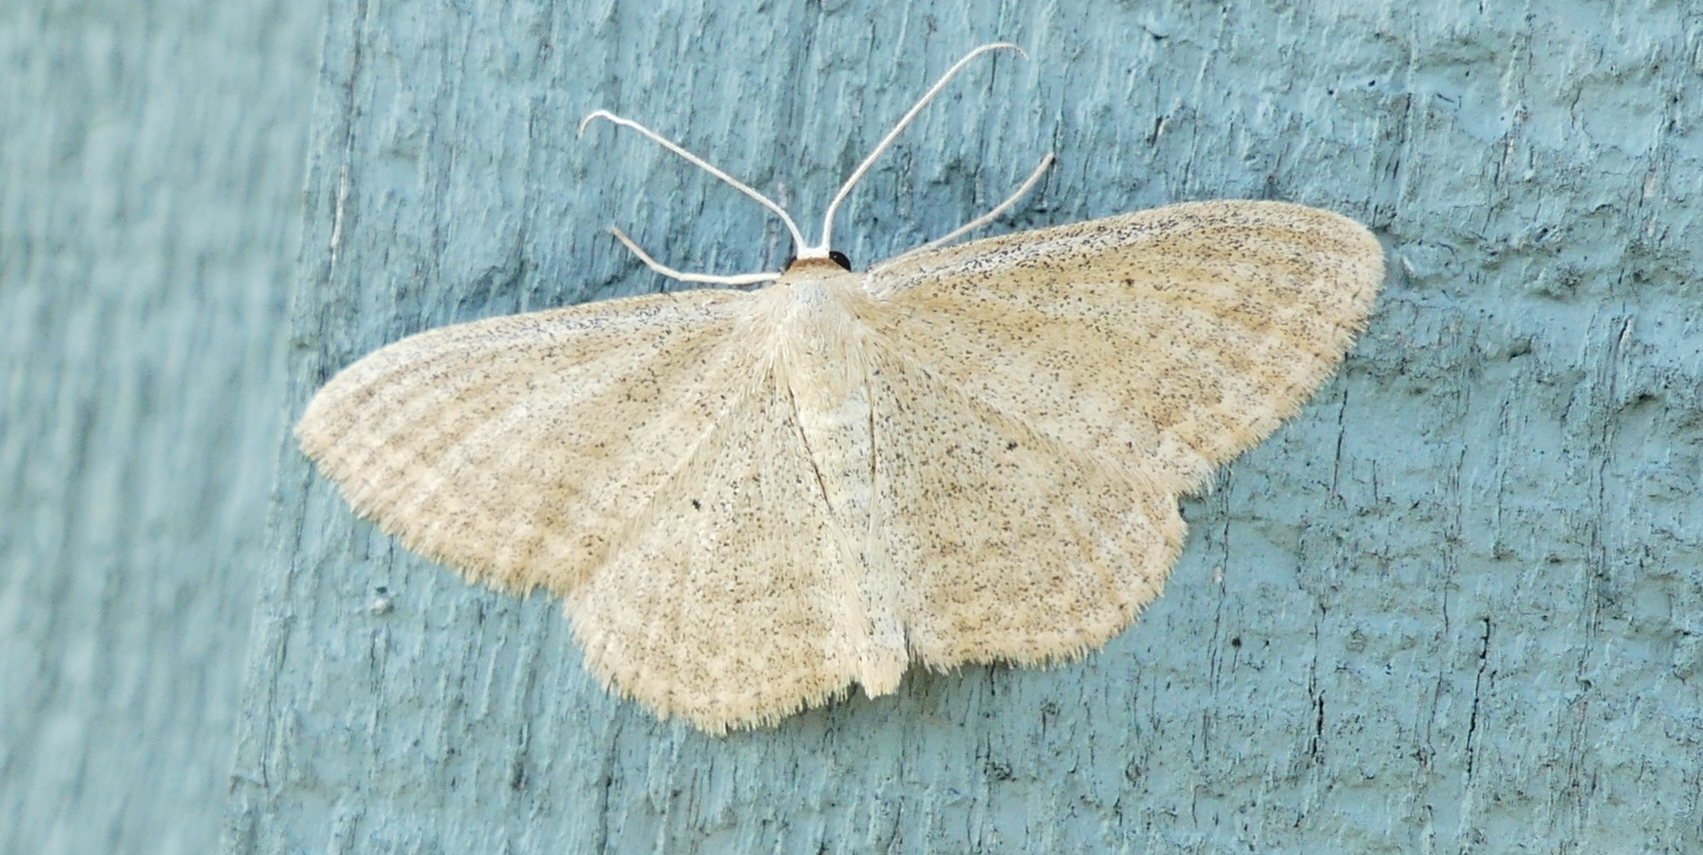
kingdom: Animalia
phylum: Arthropoda
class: Insecta
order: Lepidoptera
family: Geometridae
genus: Scopula
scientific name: Scopula inductata
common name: Soft-lined wave
